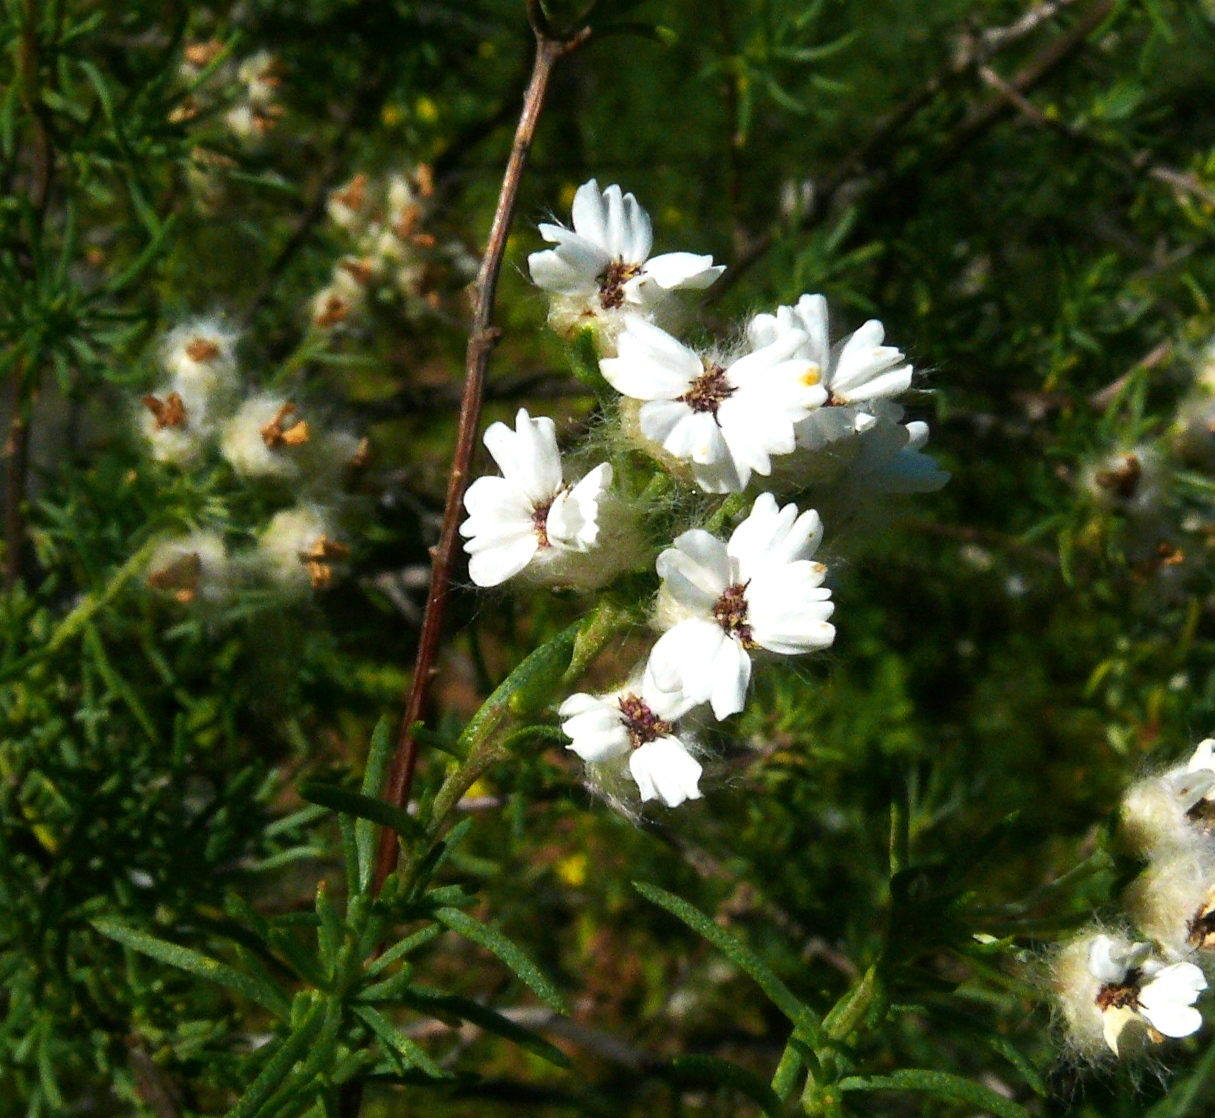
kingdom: Plantae
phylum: Tracheophyta
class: Magnoliopsida
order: Asterales
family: Asteraceae
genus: Eriocephalus
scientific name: Eriocephalus aromaticus
